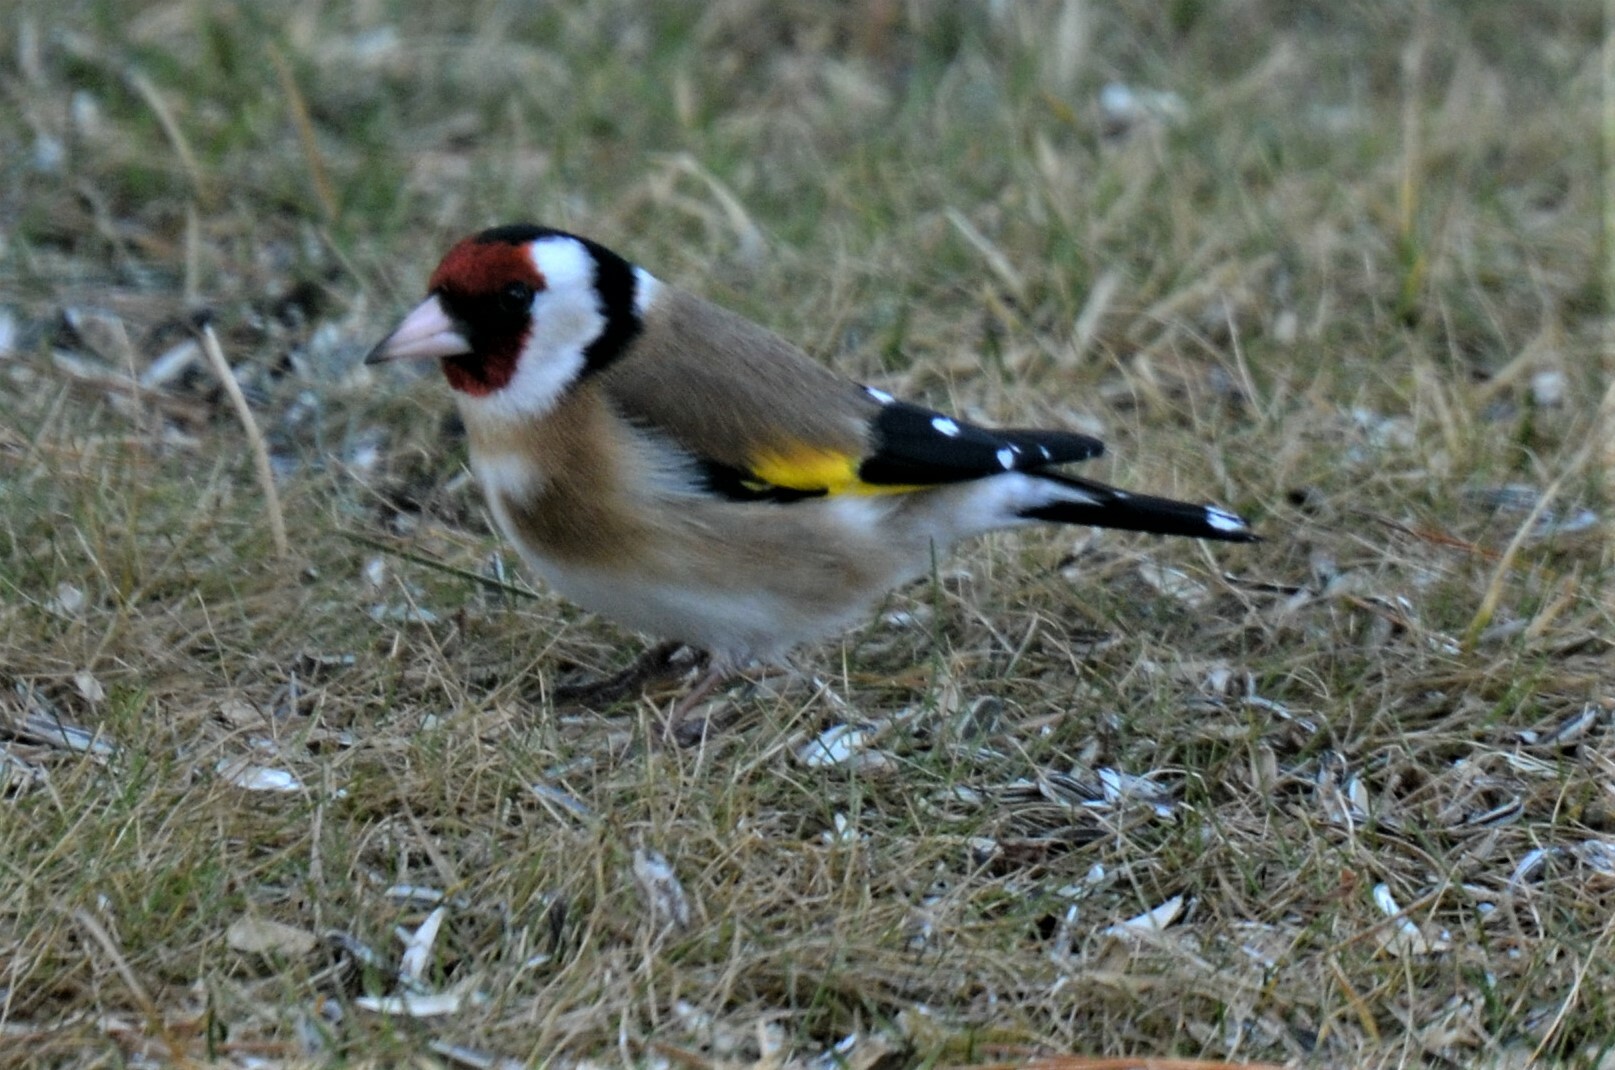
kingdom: Animalia
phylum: Chordata
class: Aves
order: Passeriformes
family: Fringillidae
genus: Carduelis
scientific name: Carduelis carduelis
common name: European goldfinch
